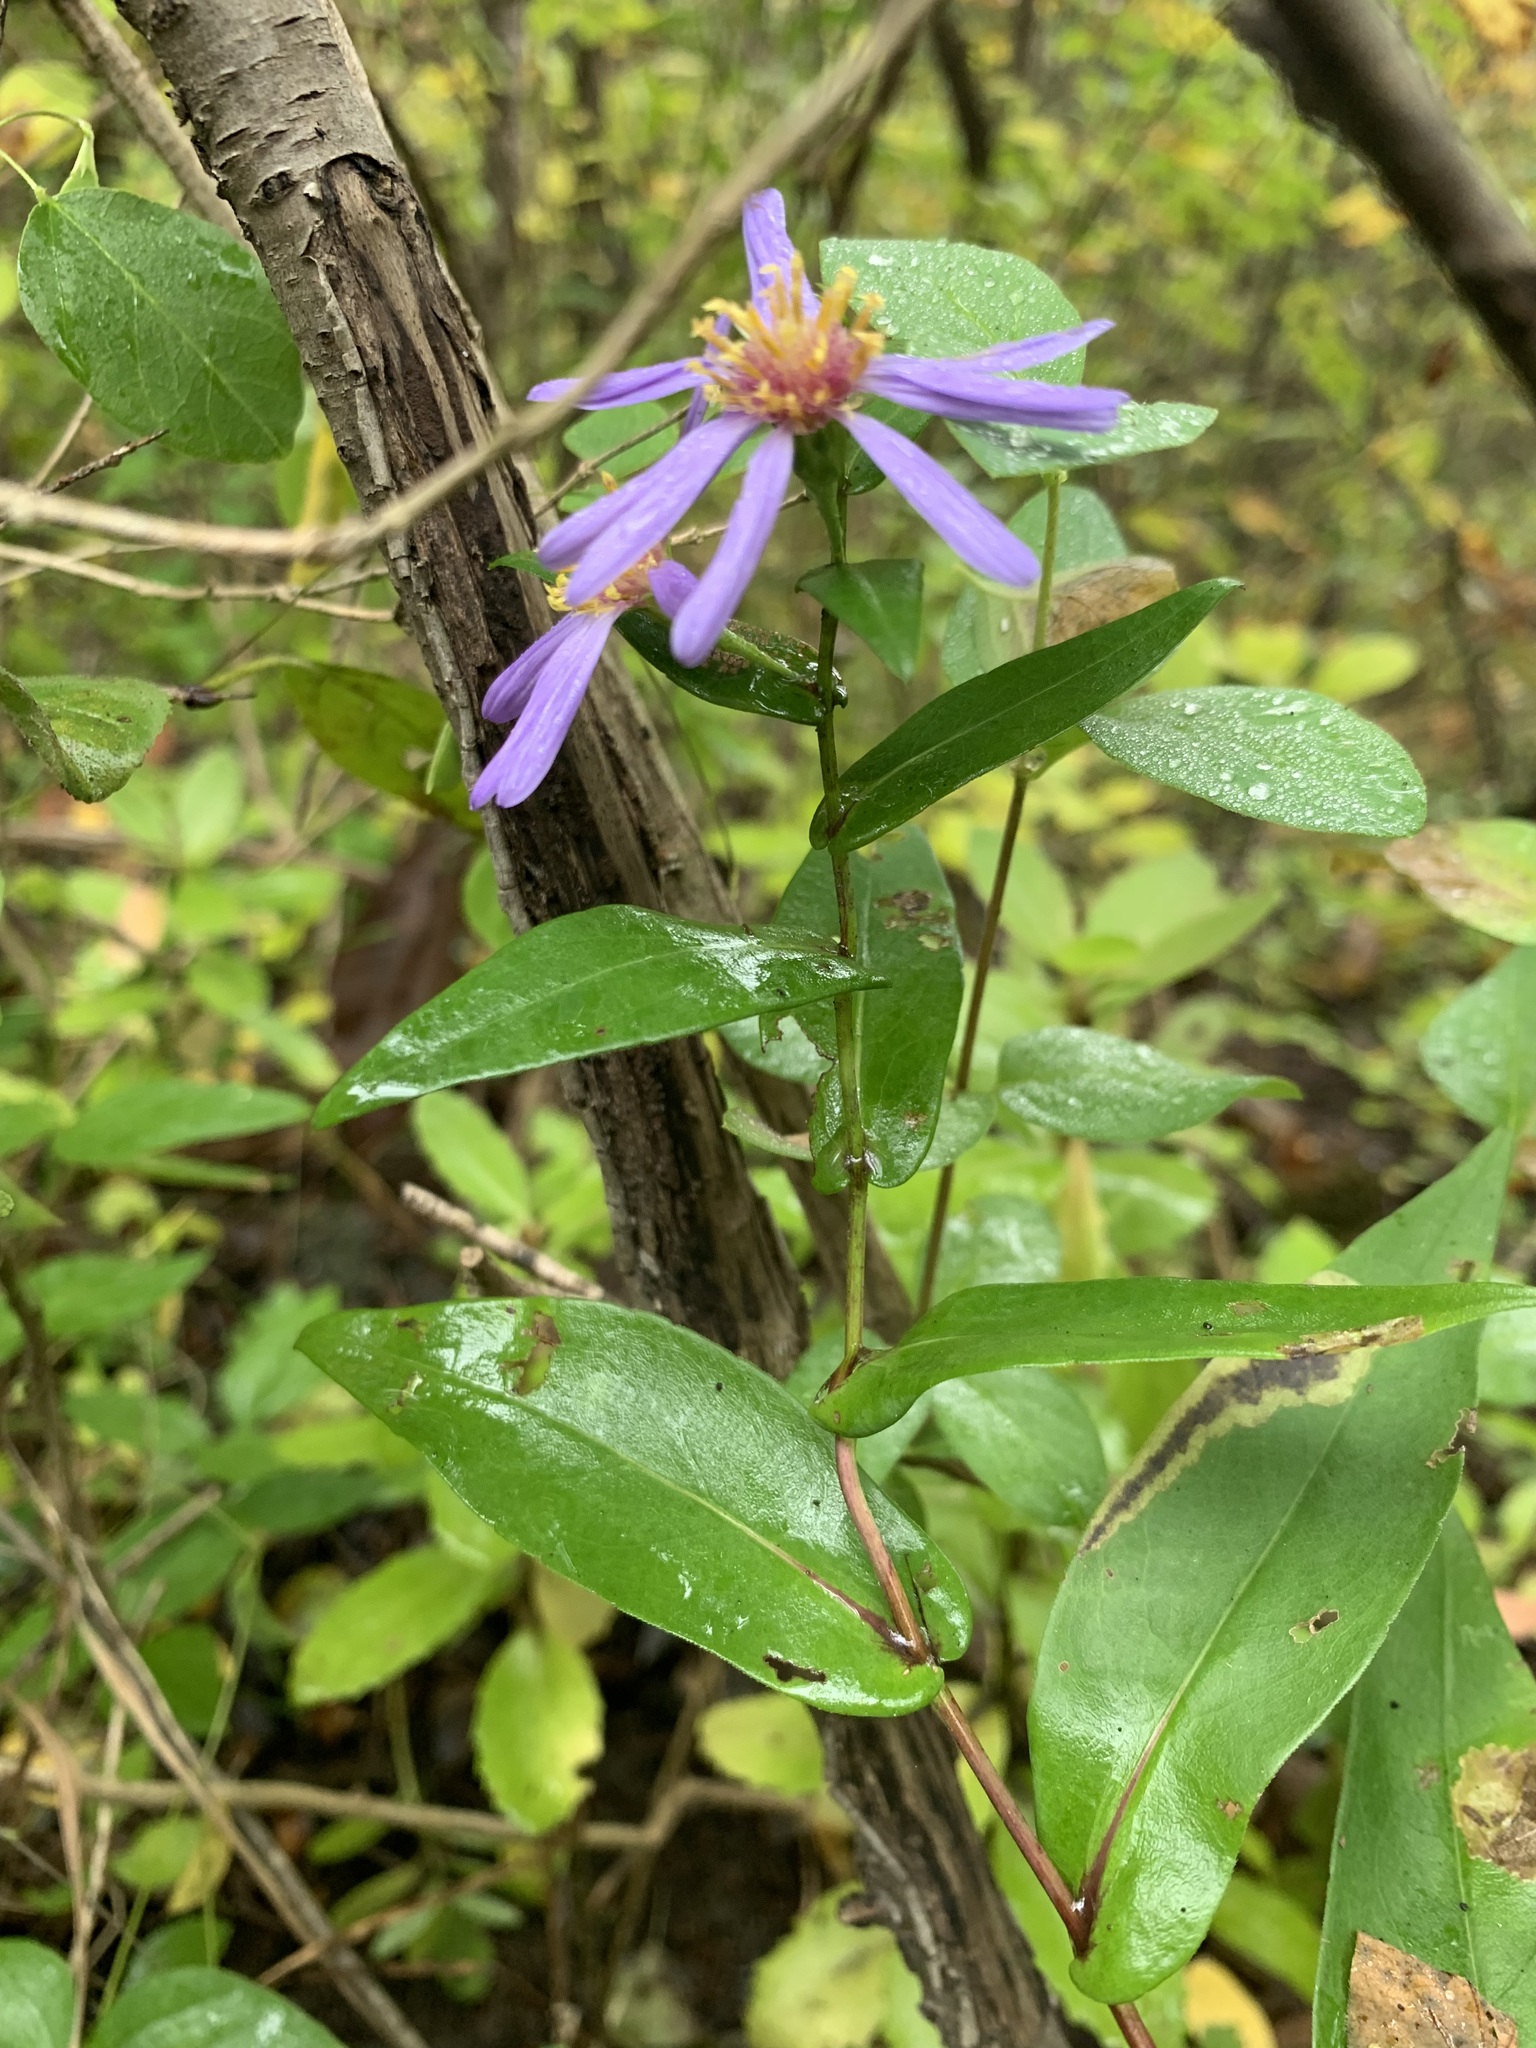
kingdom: Plantae
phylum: Tracheophyta
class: Magnoliopsida
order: Asterales
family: Asteraceae
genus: Symphyotrichum
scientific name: Symphyotrichum laeve
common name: Glaucous aster
